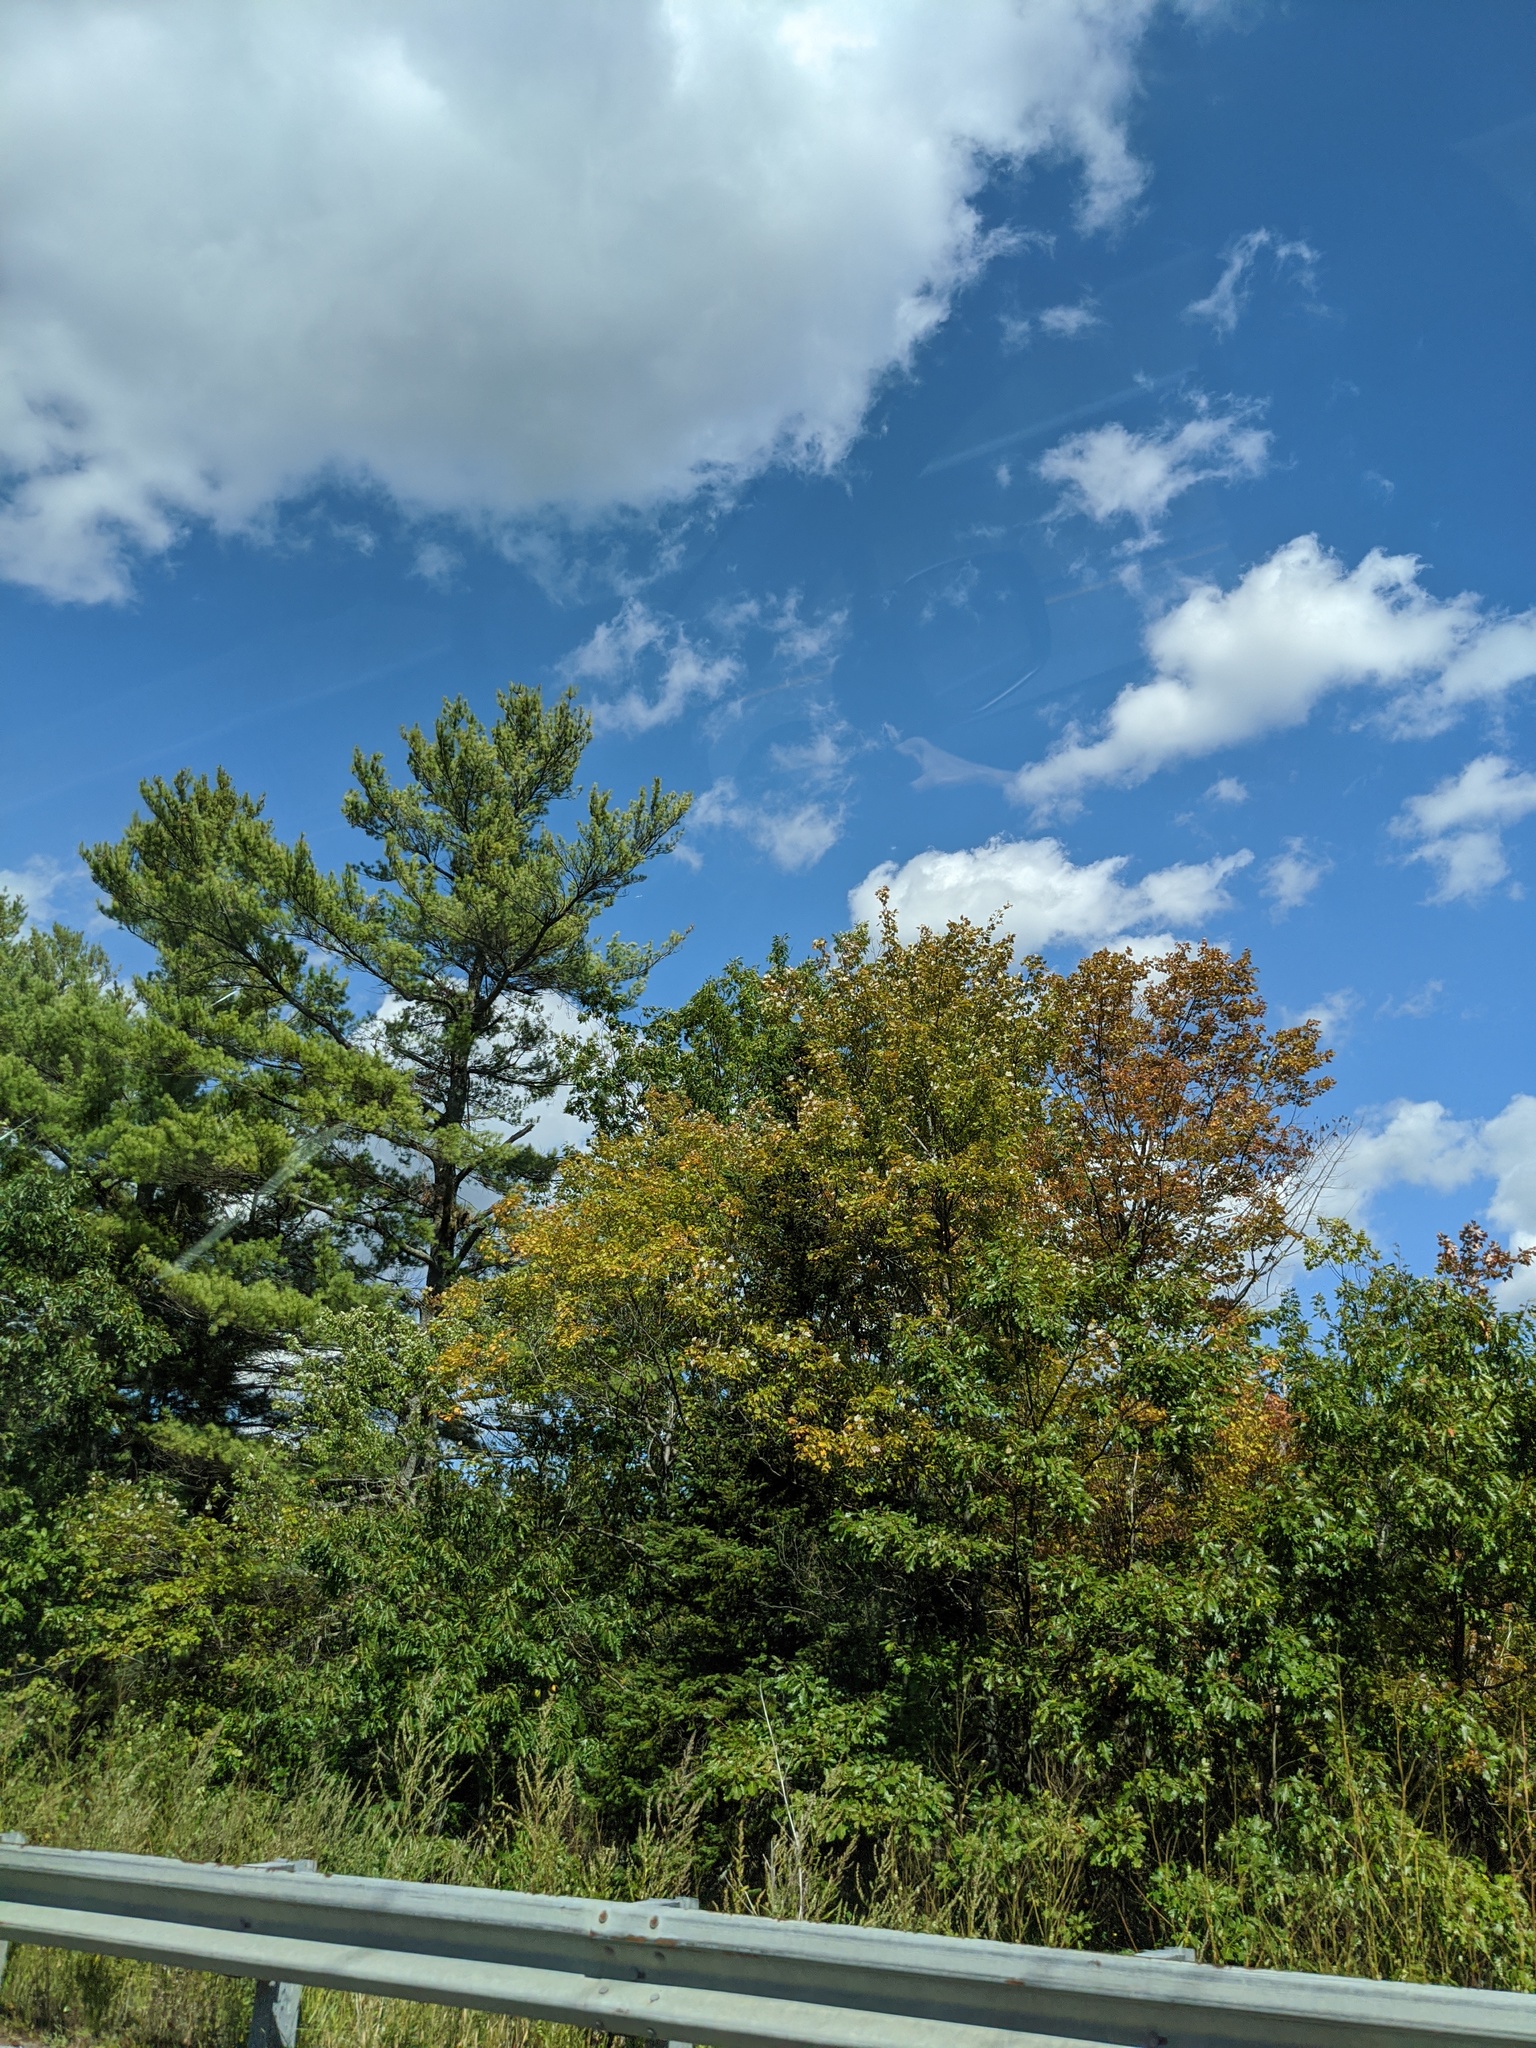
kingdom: Plantae
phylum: Tracheophyta
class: Pinopsida
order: Pinales
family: Pinaceae
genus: Pinus
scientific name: Pinus strobus
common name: Weymouth pine
